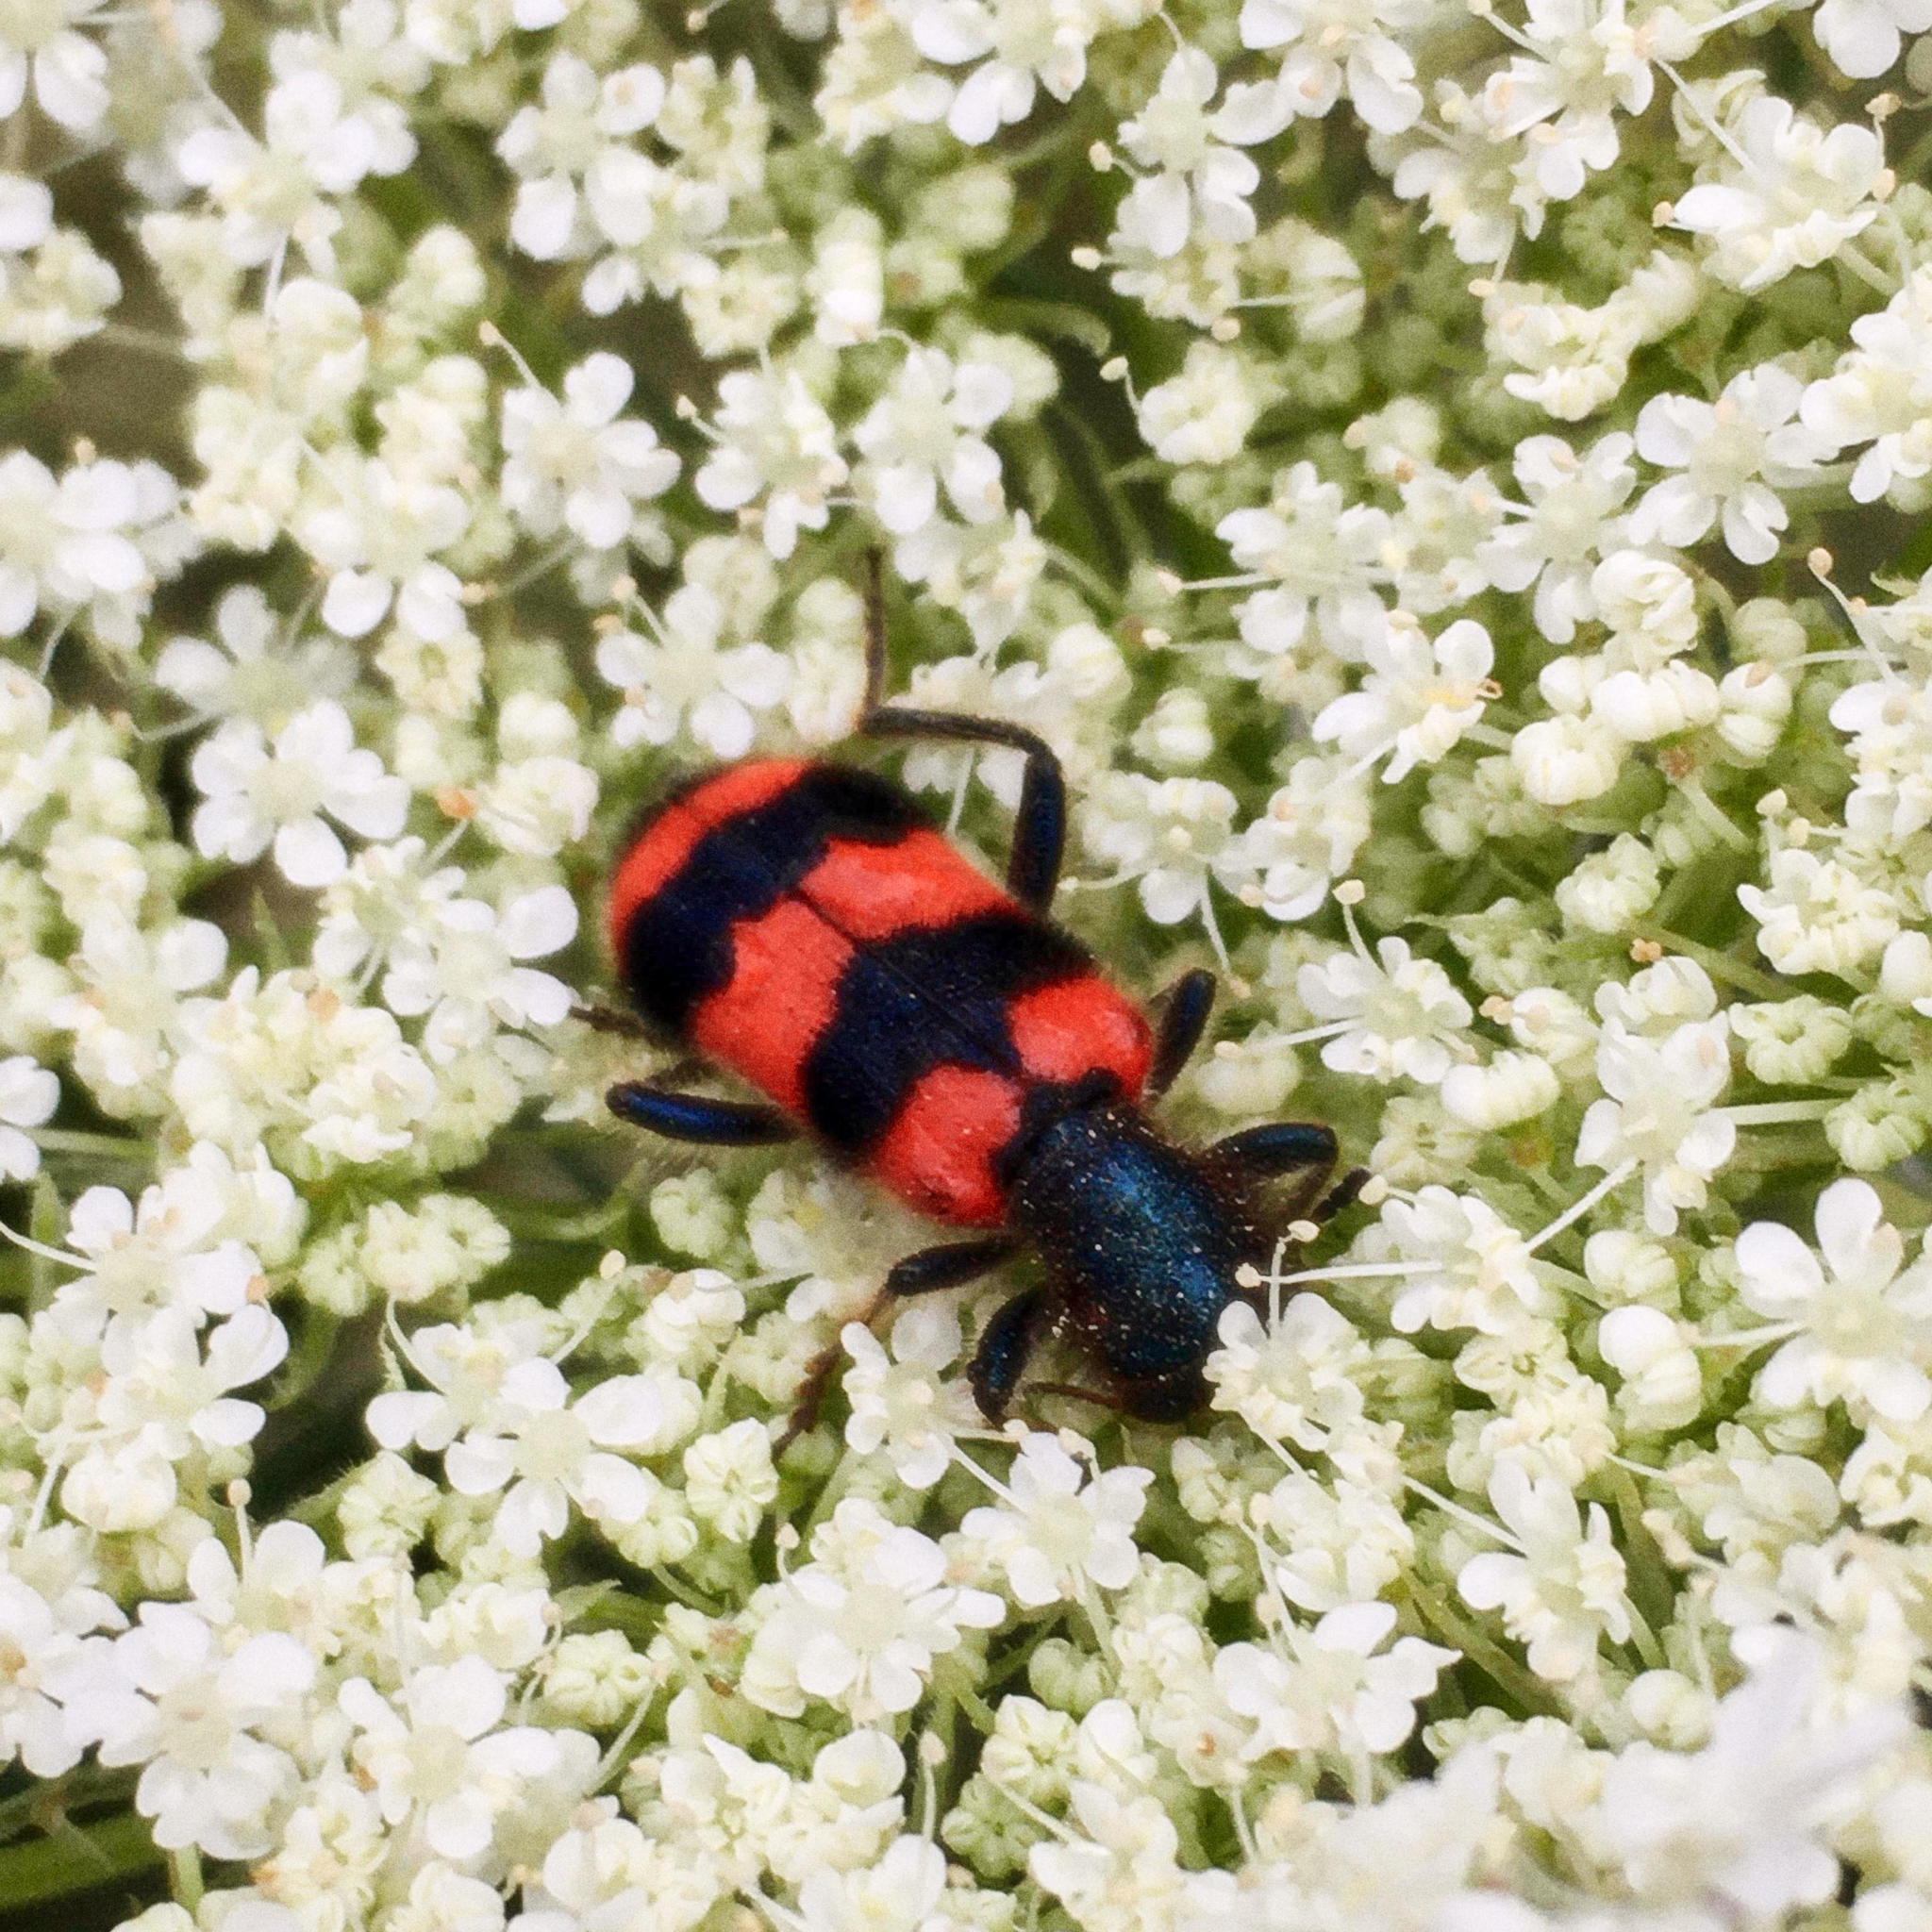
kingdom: Animalia
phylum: Arthropoda
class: Insecta
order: Coleoptera
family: Cleridae
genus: Trichodes
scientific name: Trichodes apiarius
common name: Bee-eating beetle
